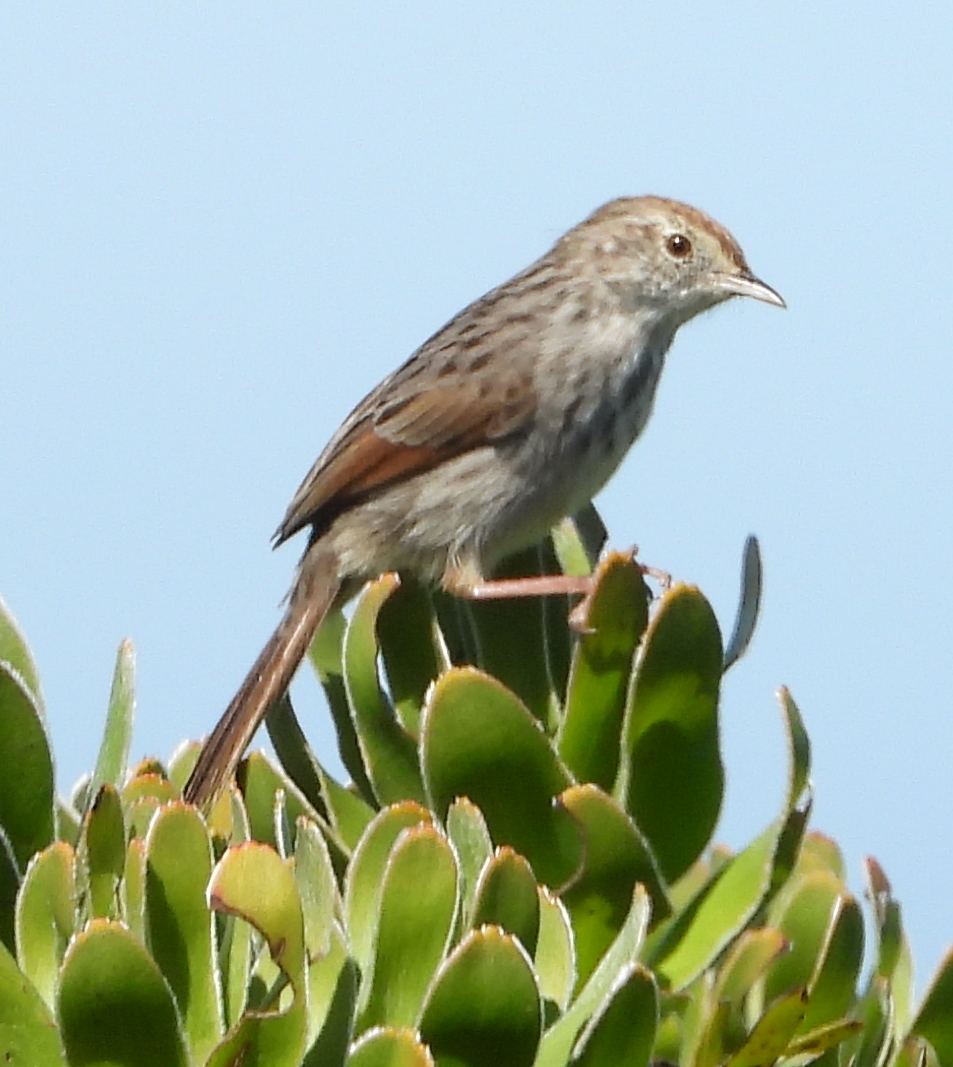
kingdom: Animalia
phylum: Chordata
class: Aves
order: Passeriformes
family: Cisticolidae
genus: Cisticola
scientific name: Cisticola subruficapilla
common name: Grey-backed cisticola
